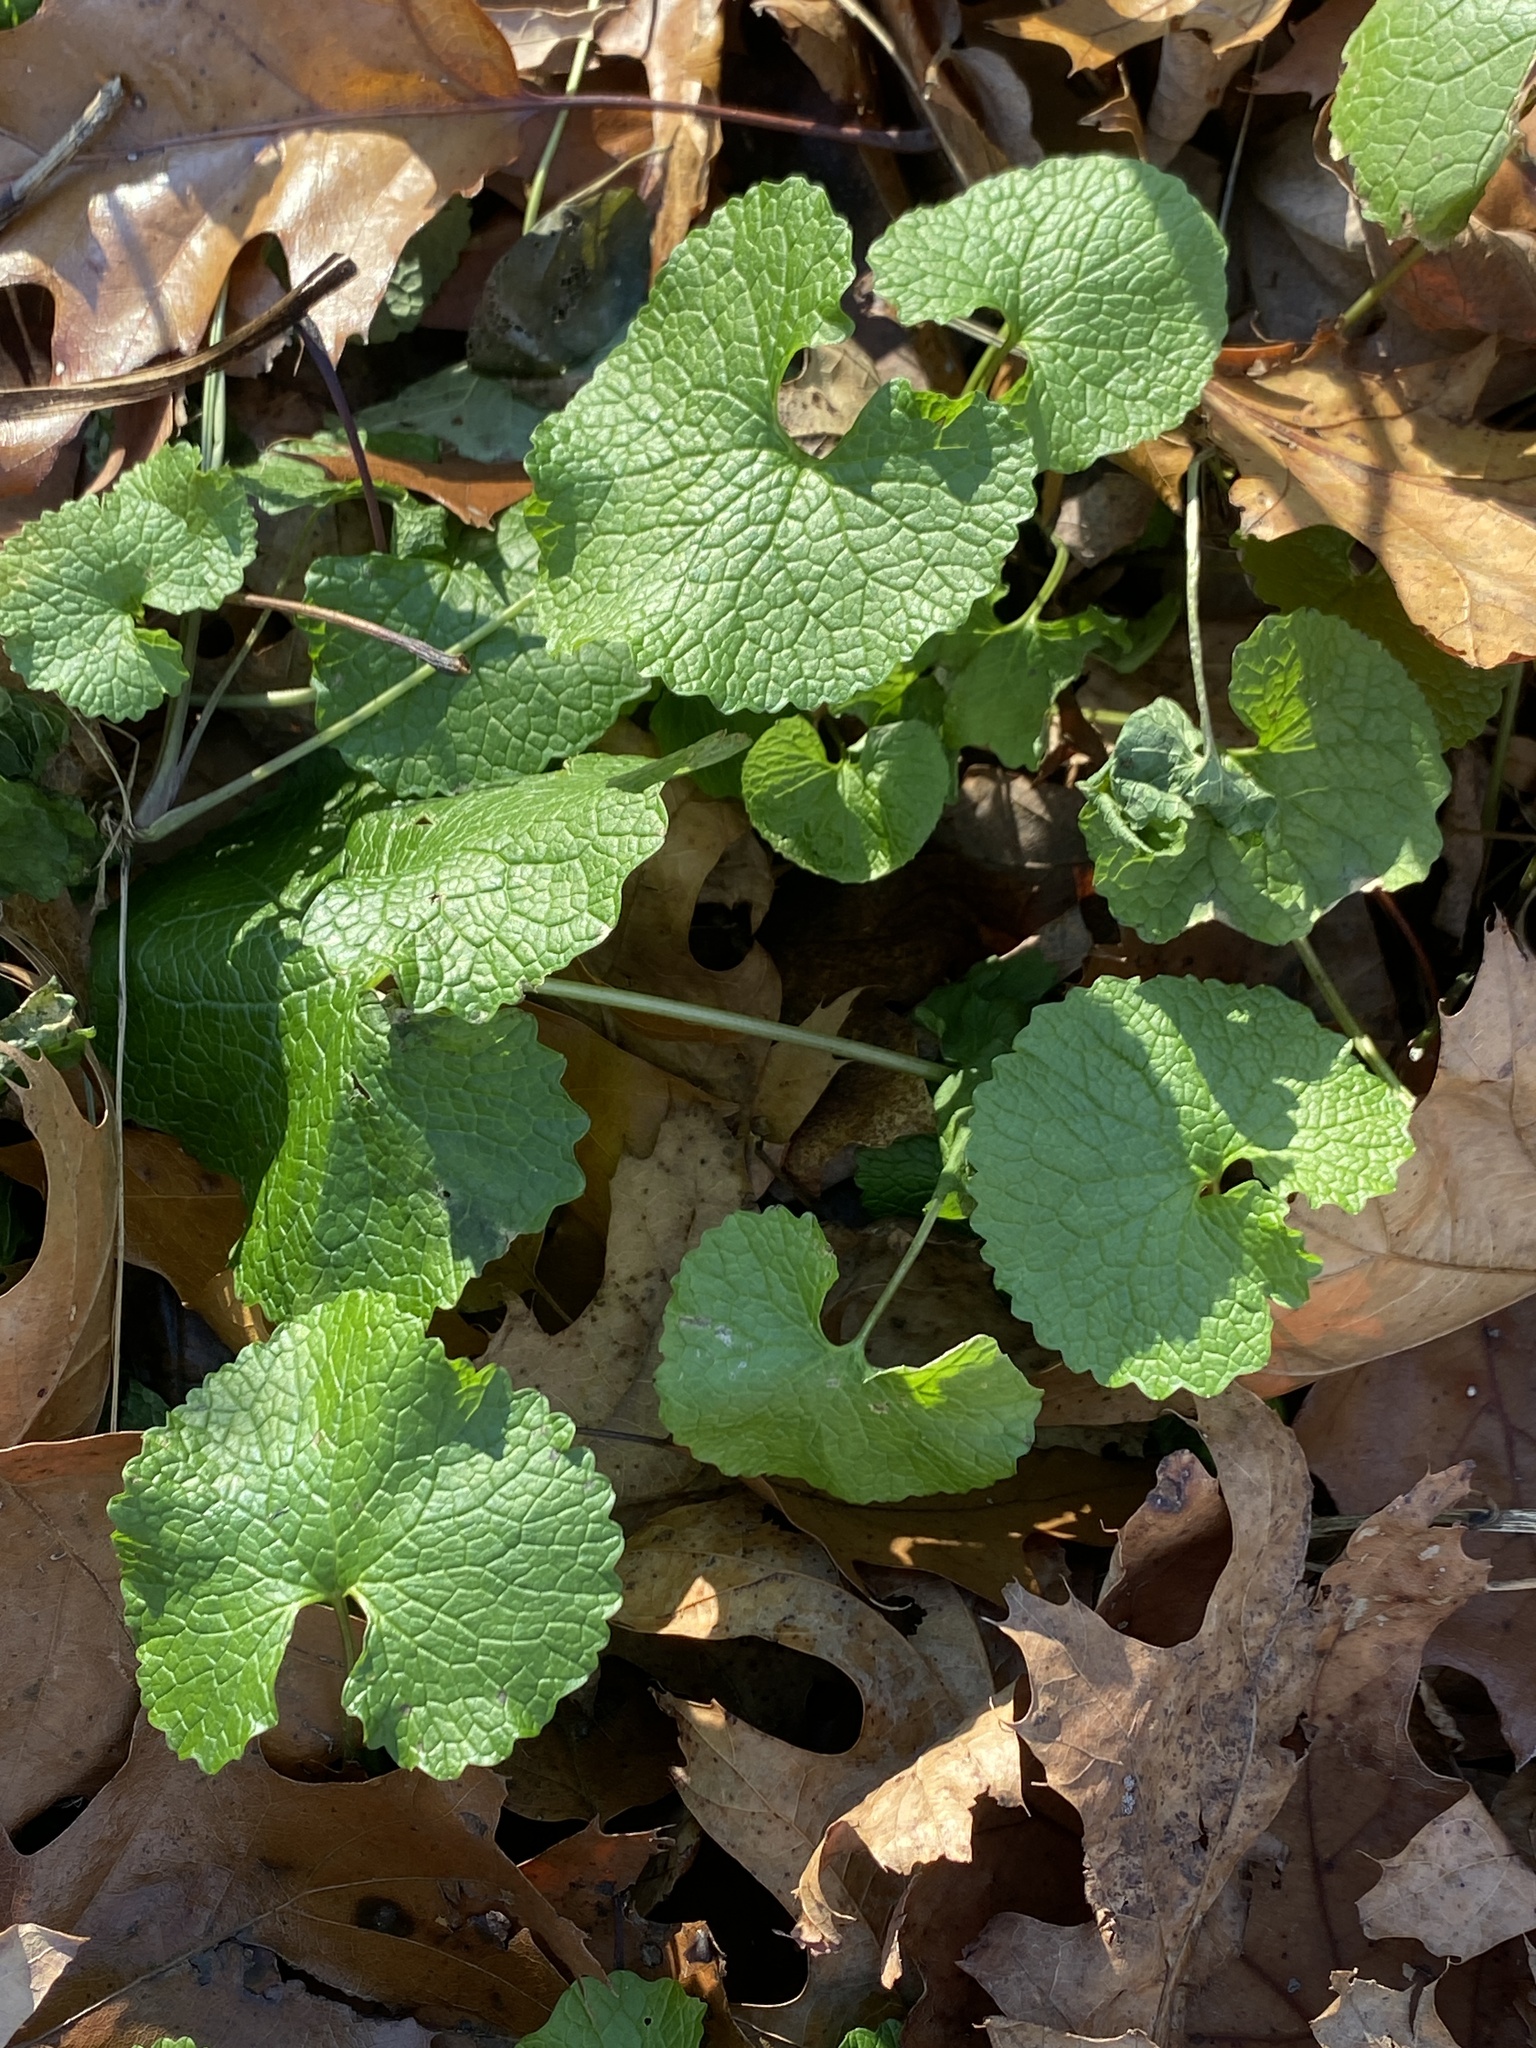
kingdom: Plantae
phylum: Tracheophyta
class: Magnoliopsida
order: Brassicales
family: Brassicaceae
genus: Alliaria
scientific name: Alliaria petiolata
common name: Garlic mustard
